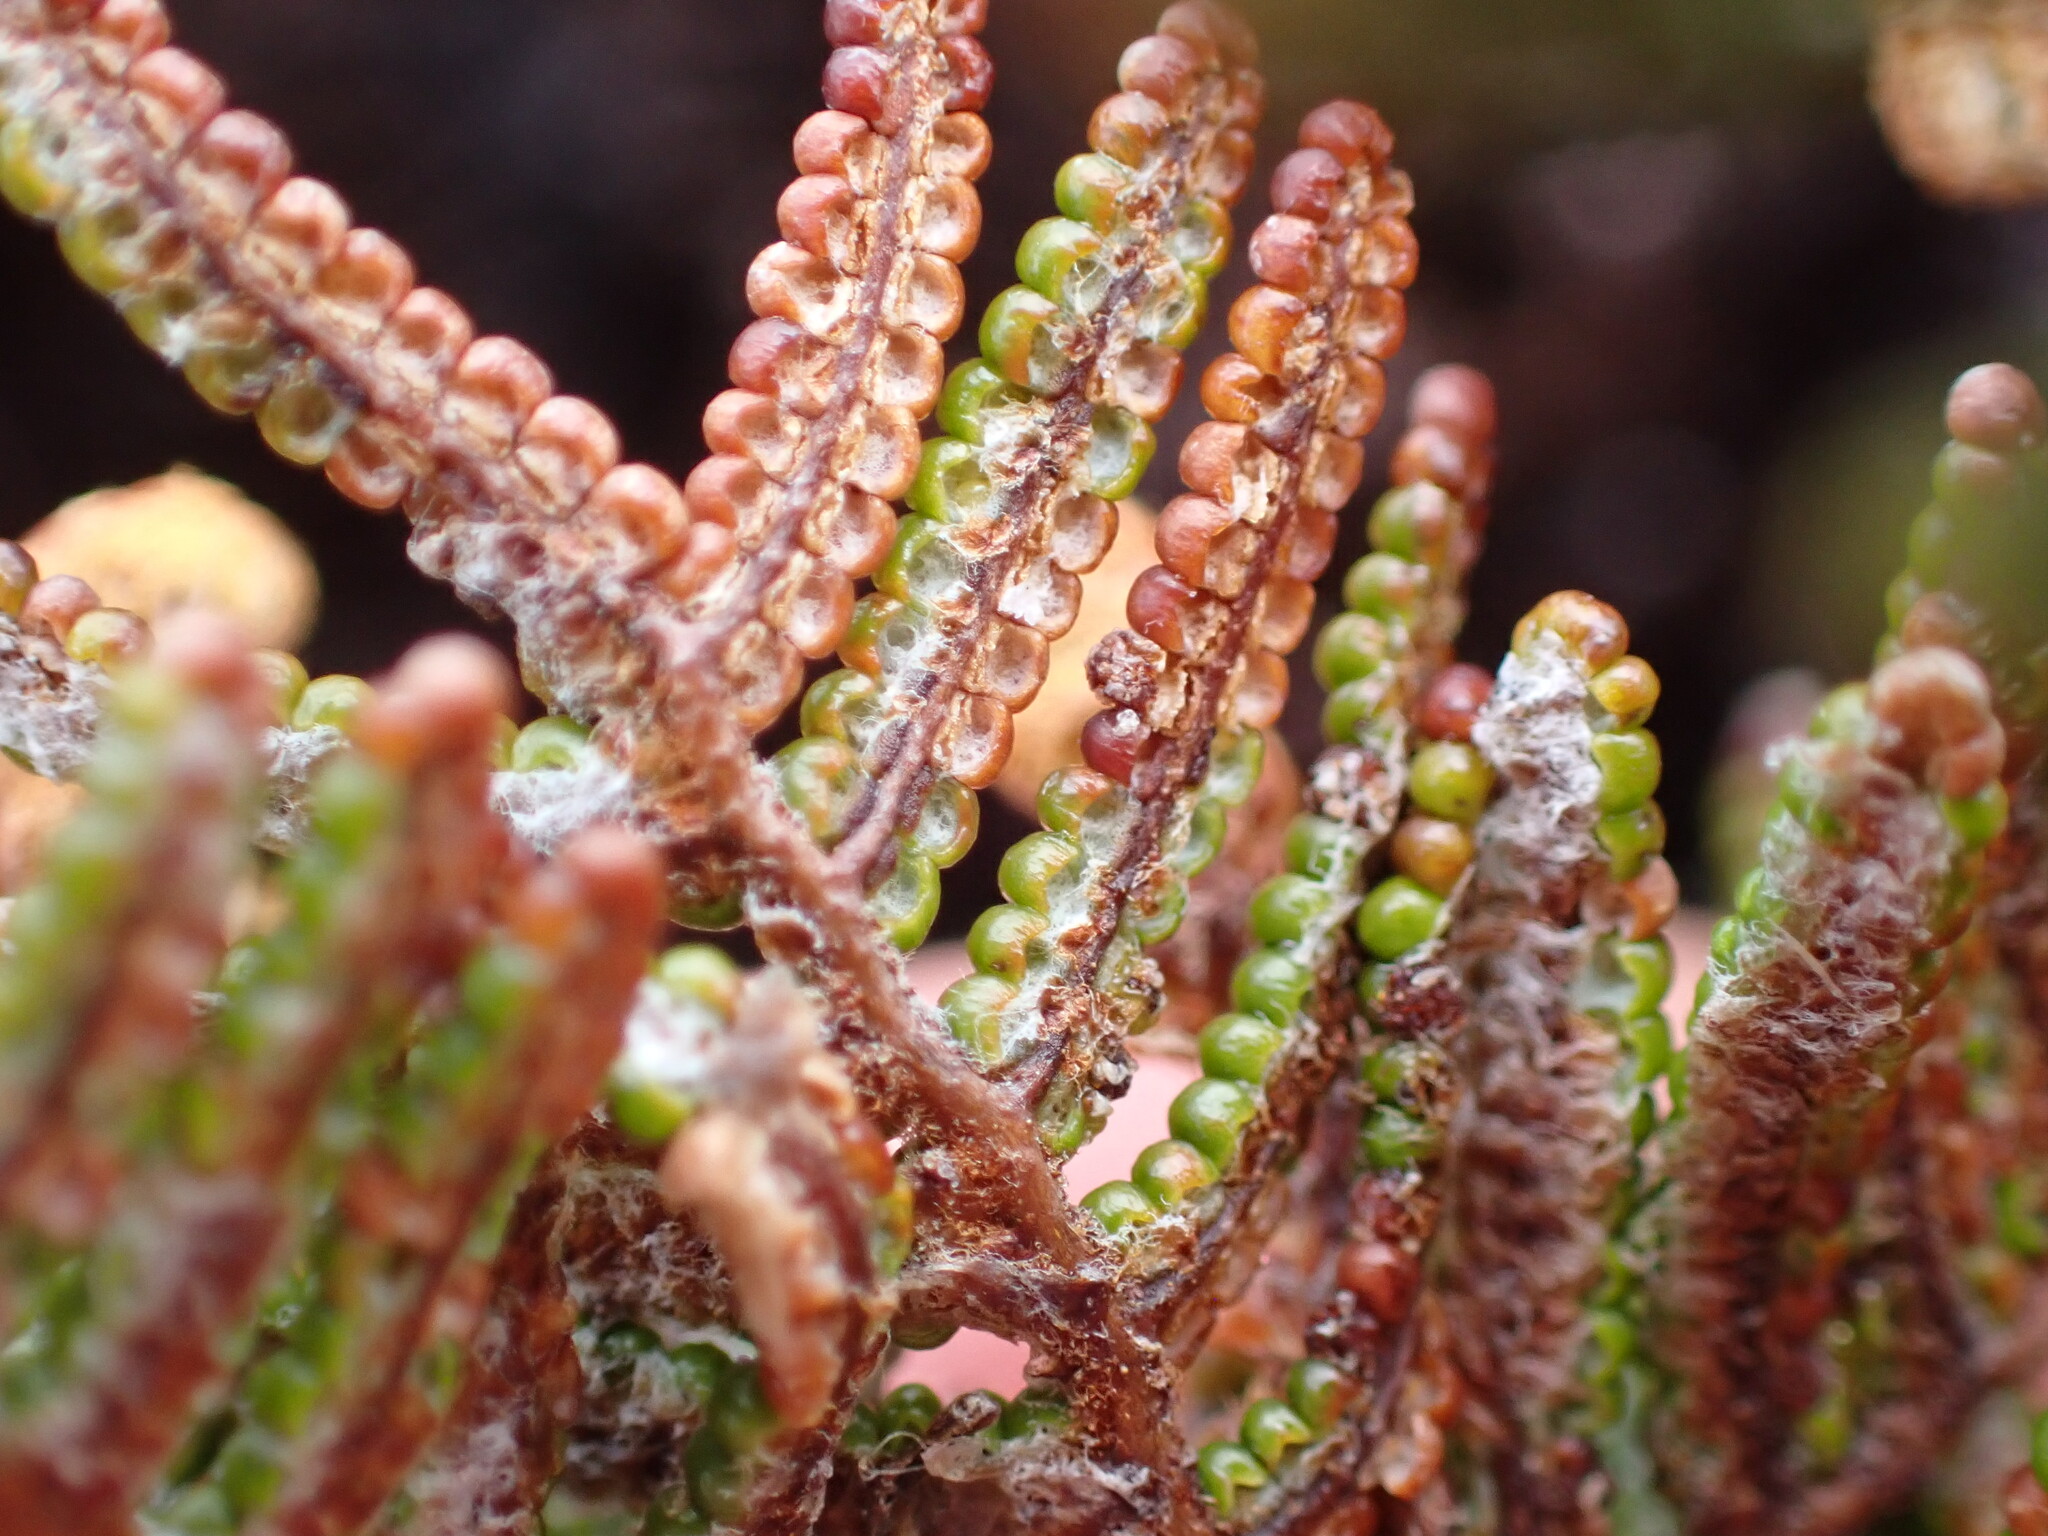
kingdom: Plantae
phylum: Tracheophyta
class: Polypodiopsida
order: Gleicheniales
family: Gleicheniaceae
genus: Gleichenia
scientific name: Gleichenia alpina
